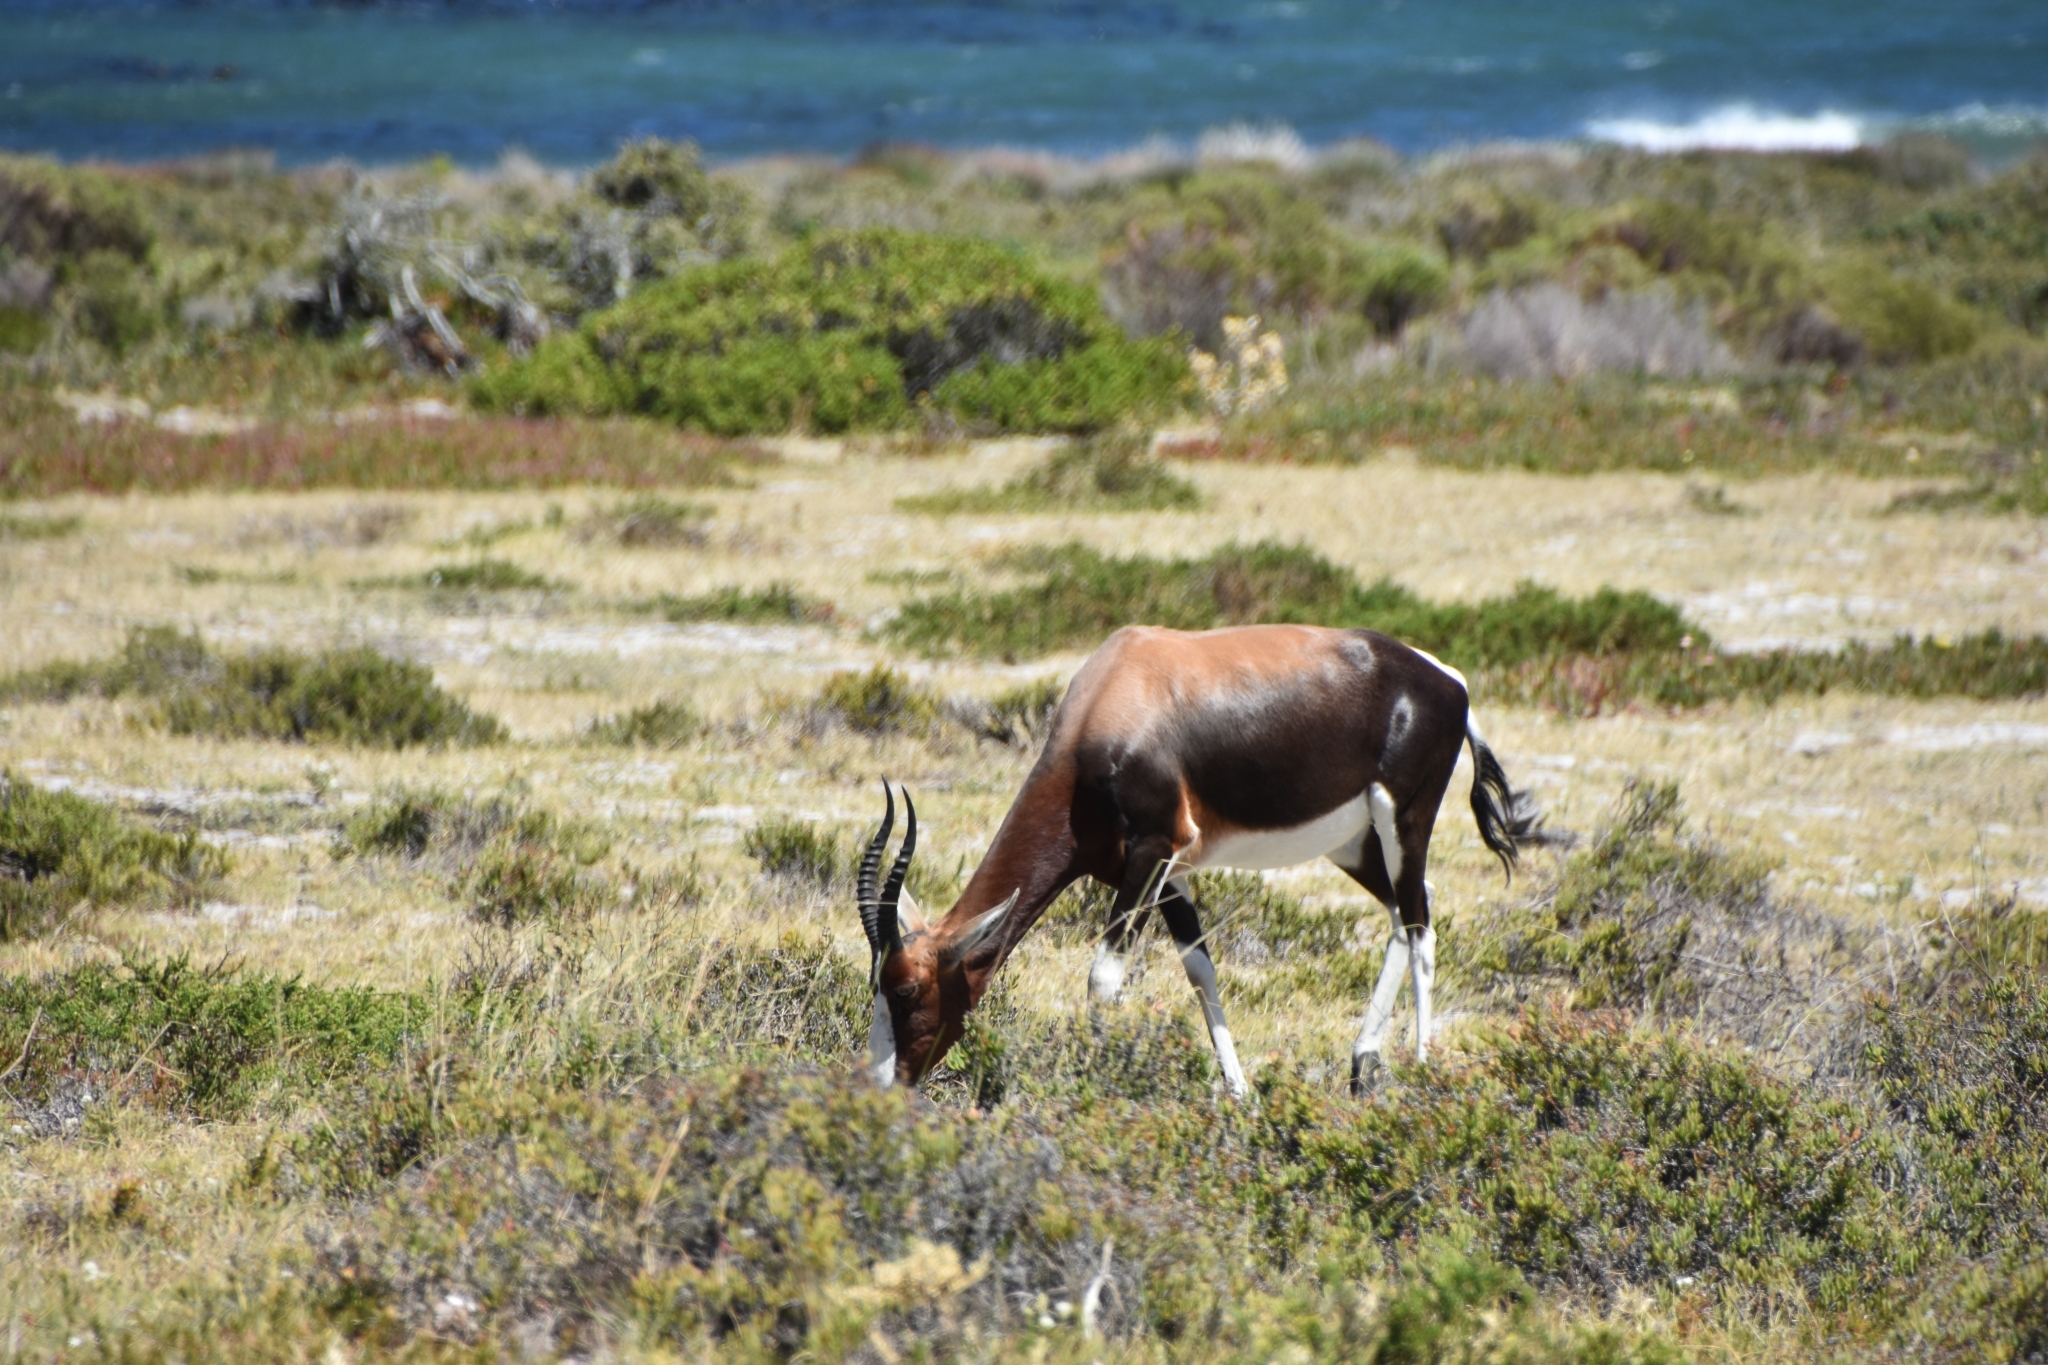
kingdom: Animalia
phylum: Chordata
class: Mammalia
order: Artiodactyla
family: Bovidae
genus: Damaliscus
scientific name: Damaliscus pygargus
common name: Bontebok
